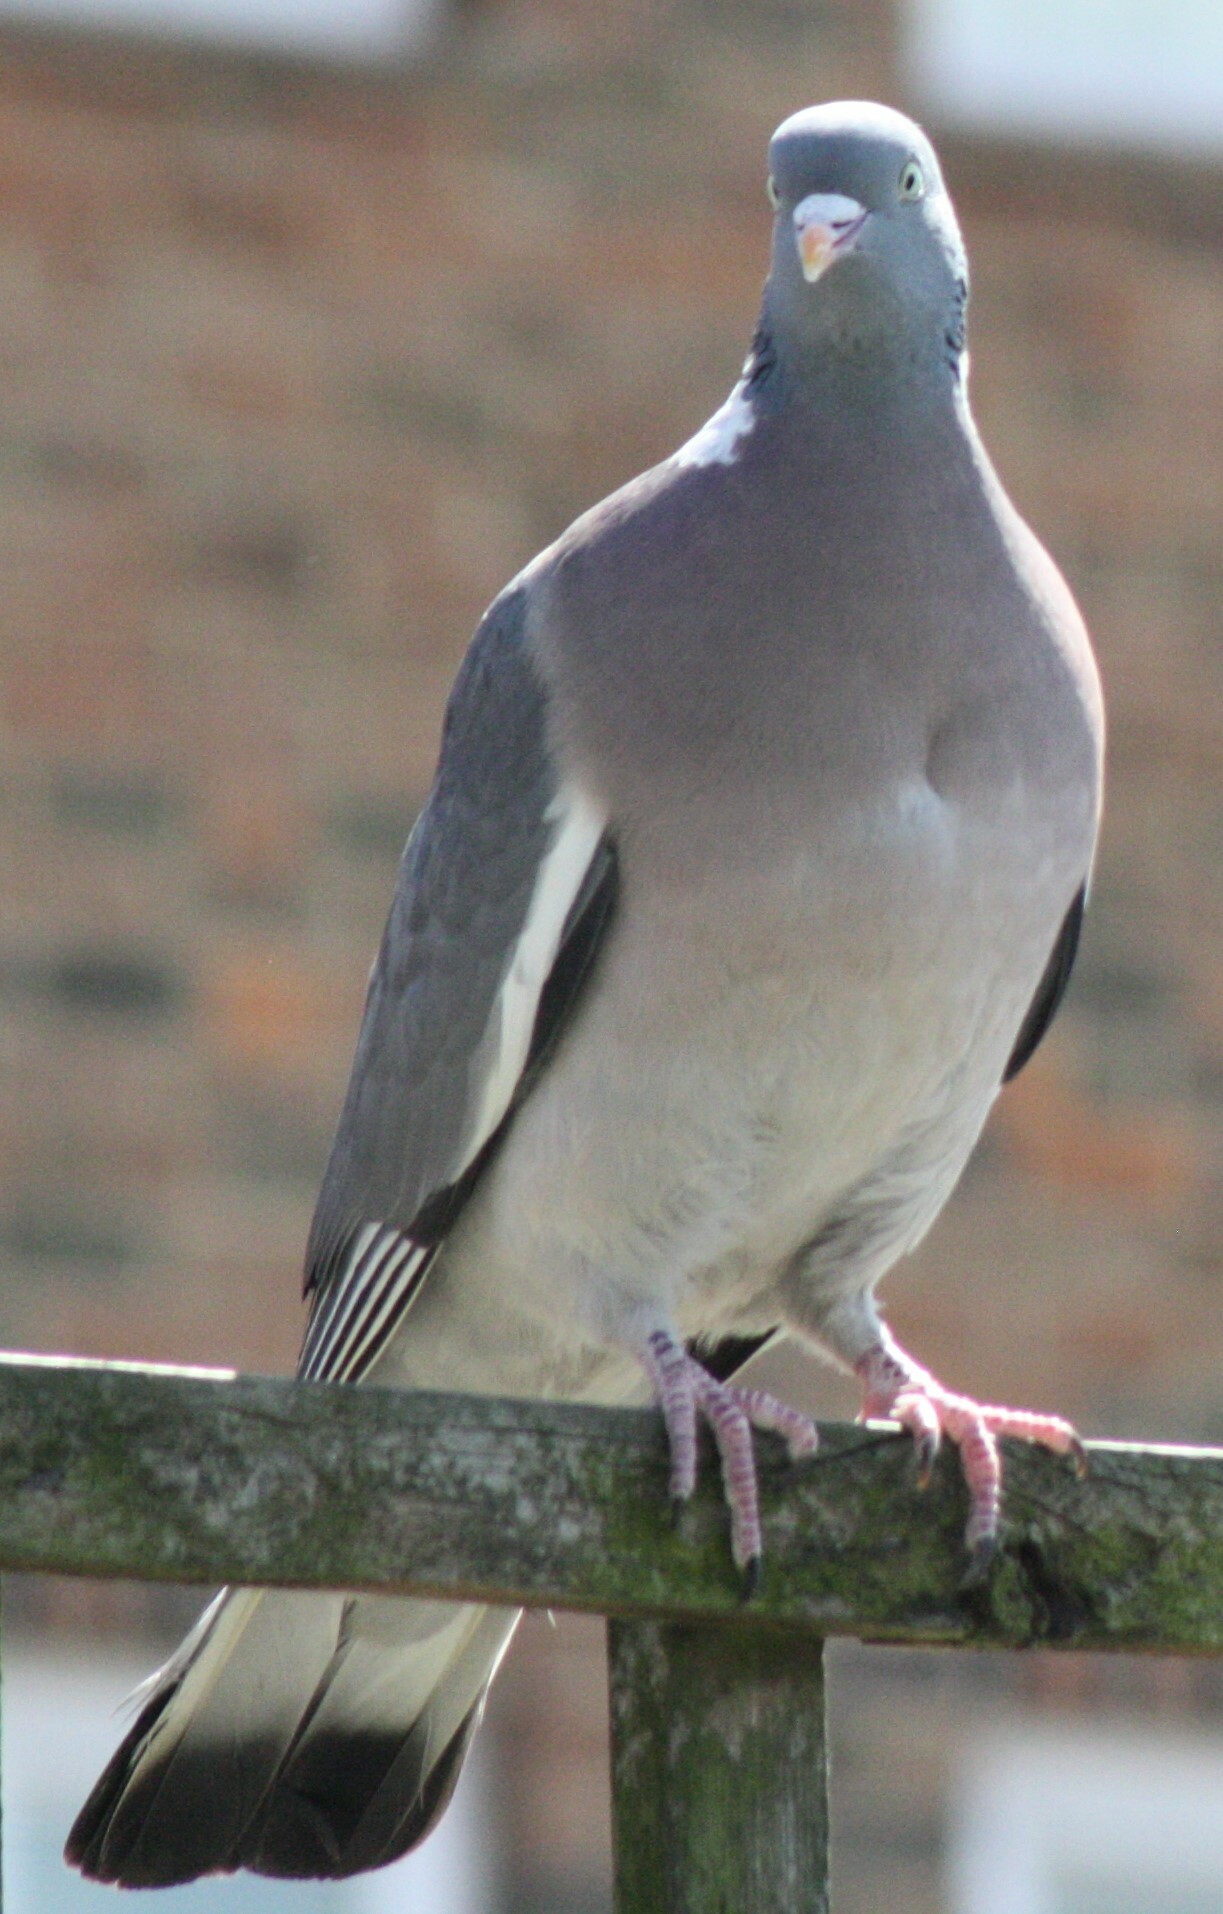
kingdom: Animalia
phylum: Chordata
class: Aves
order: Columbiformes
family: Columbidae
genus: Columba
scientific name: Columba palumbus
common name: Common wood pigeon
